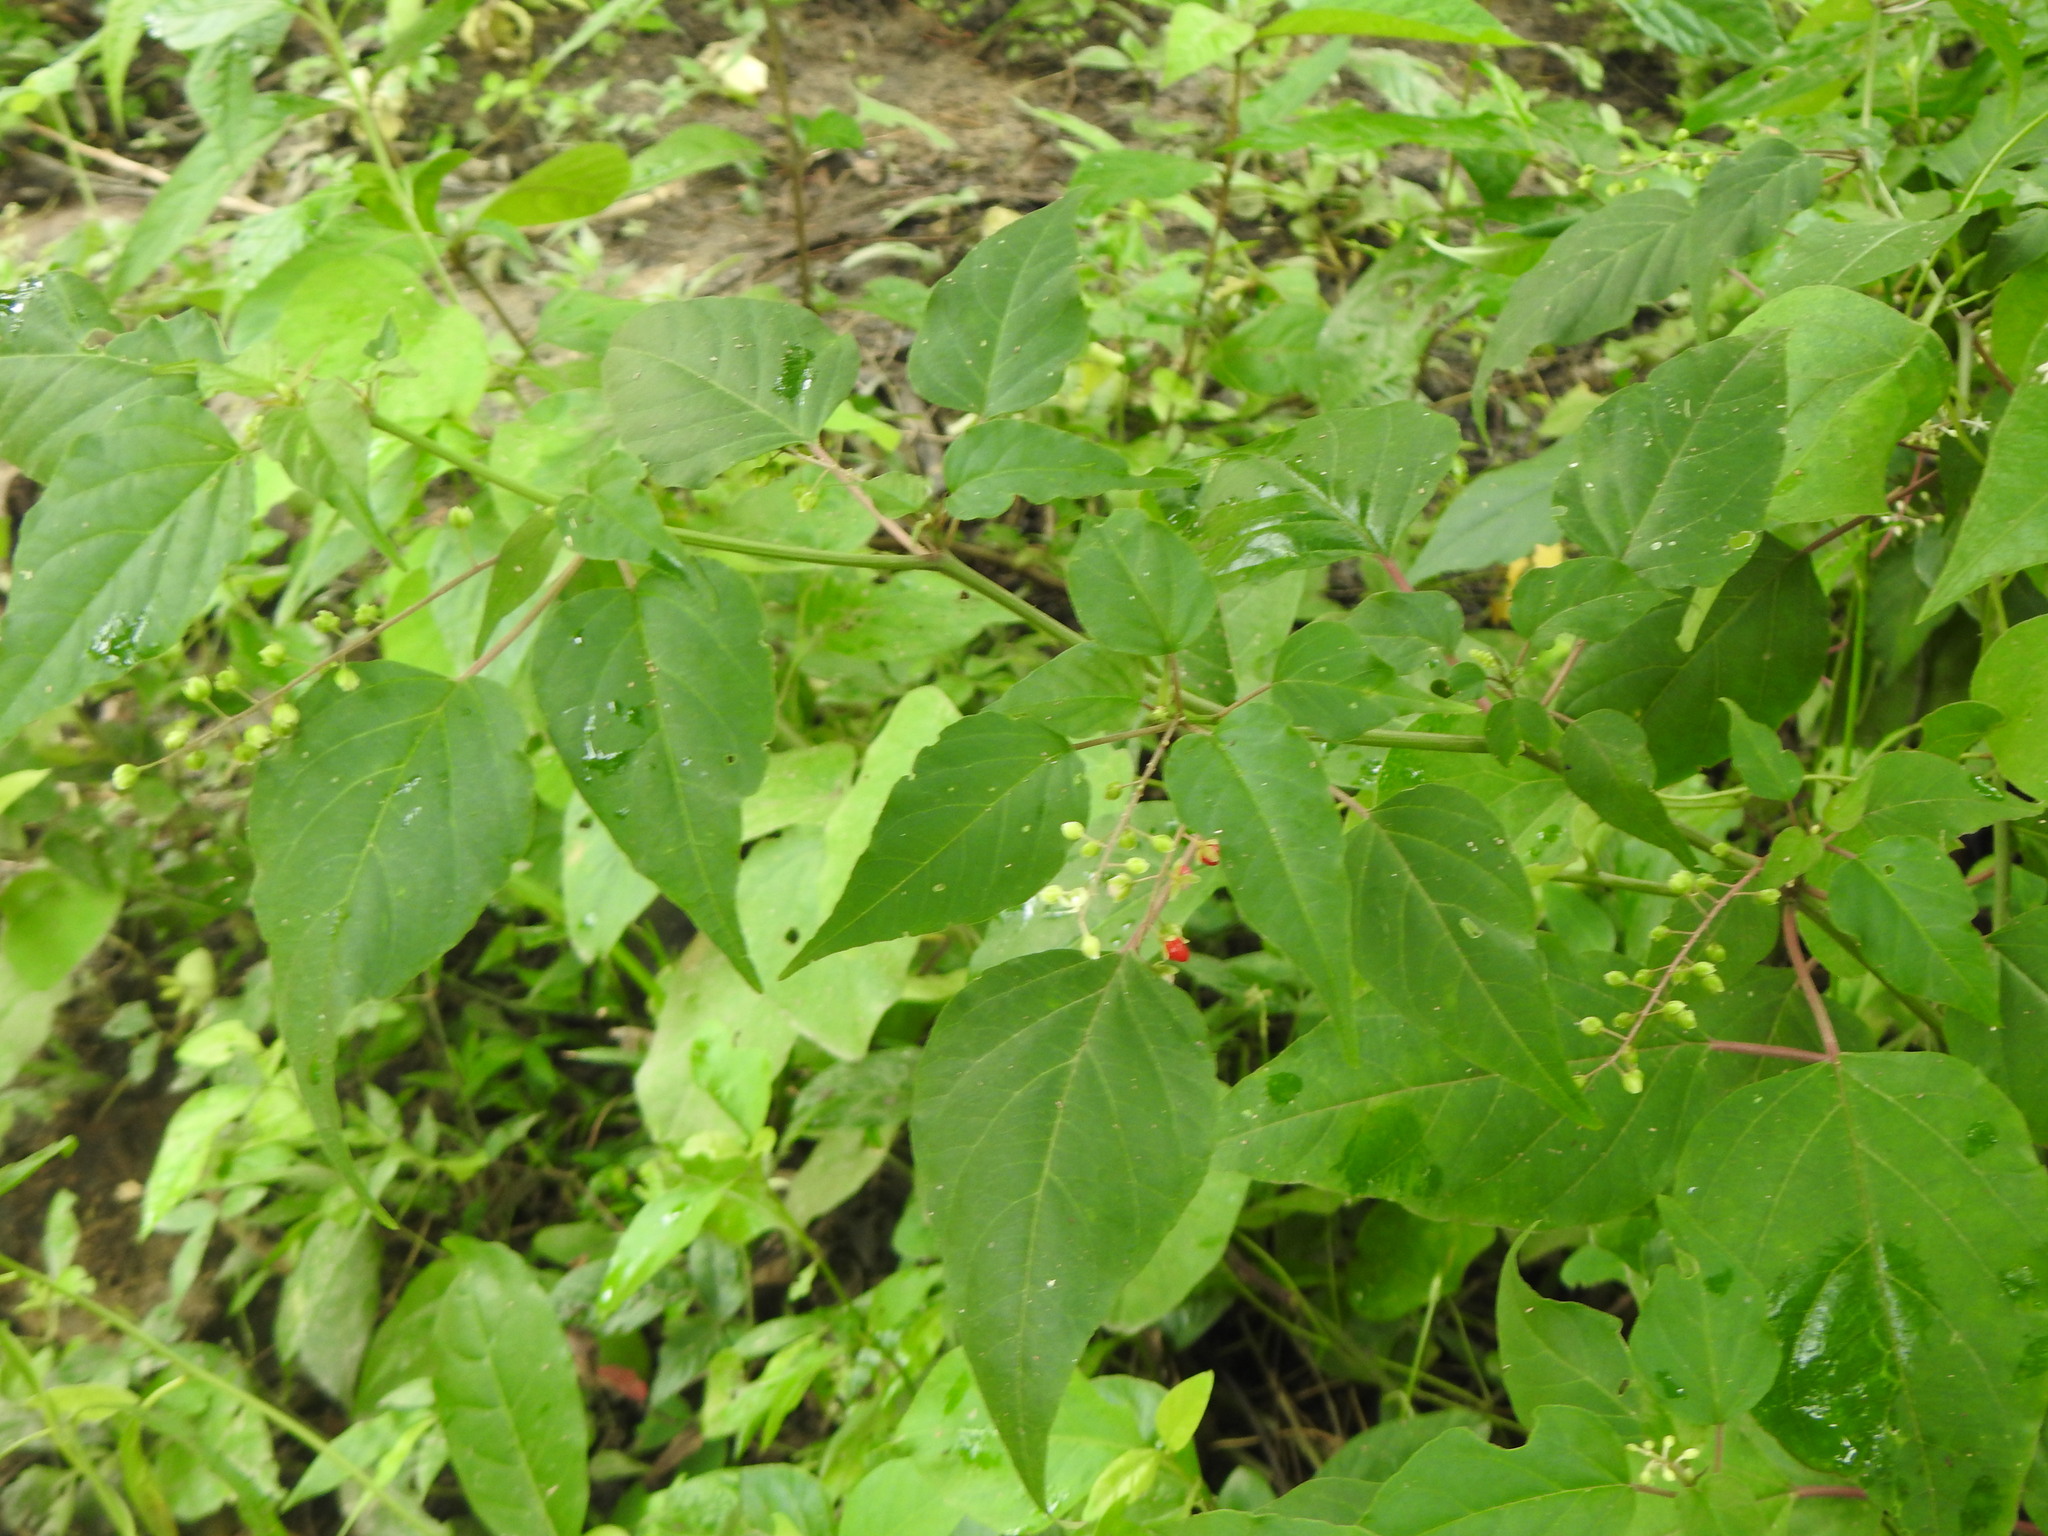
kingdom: Plantae
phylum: Tracheophyta
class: Magnoliopsida
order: Caryophyllales
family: Phytolaccaceae
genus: Rivina
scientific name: Rivina humilis
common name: Rougeplant
